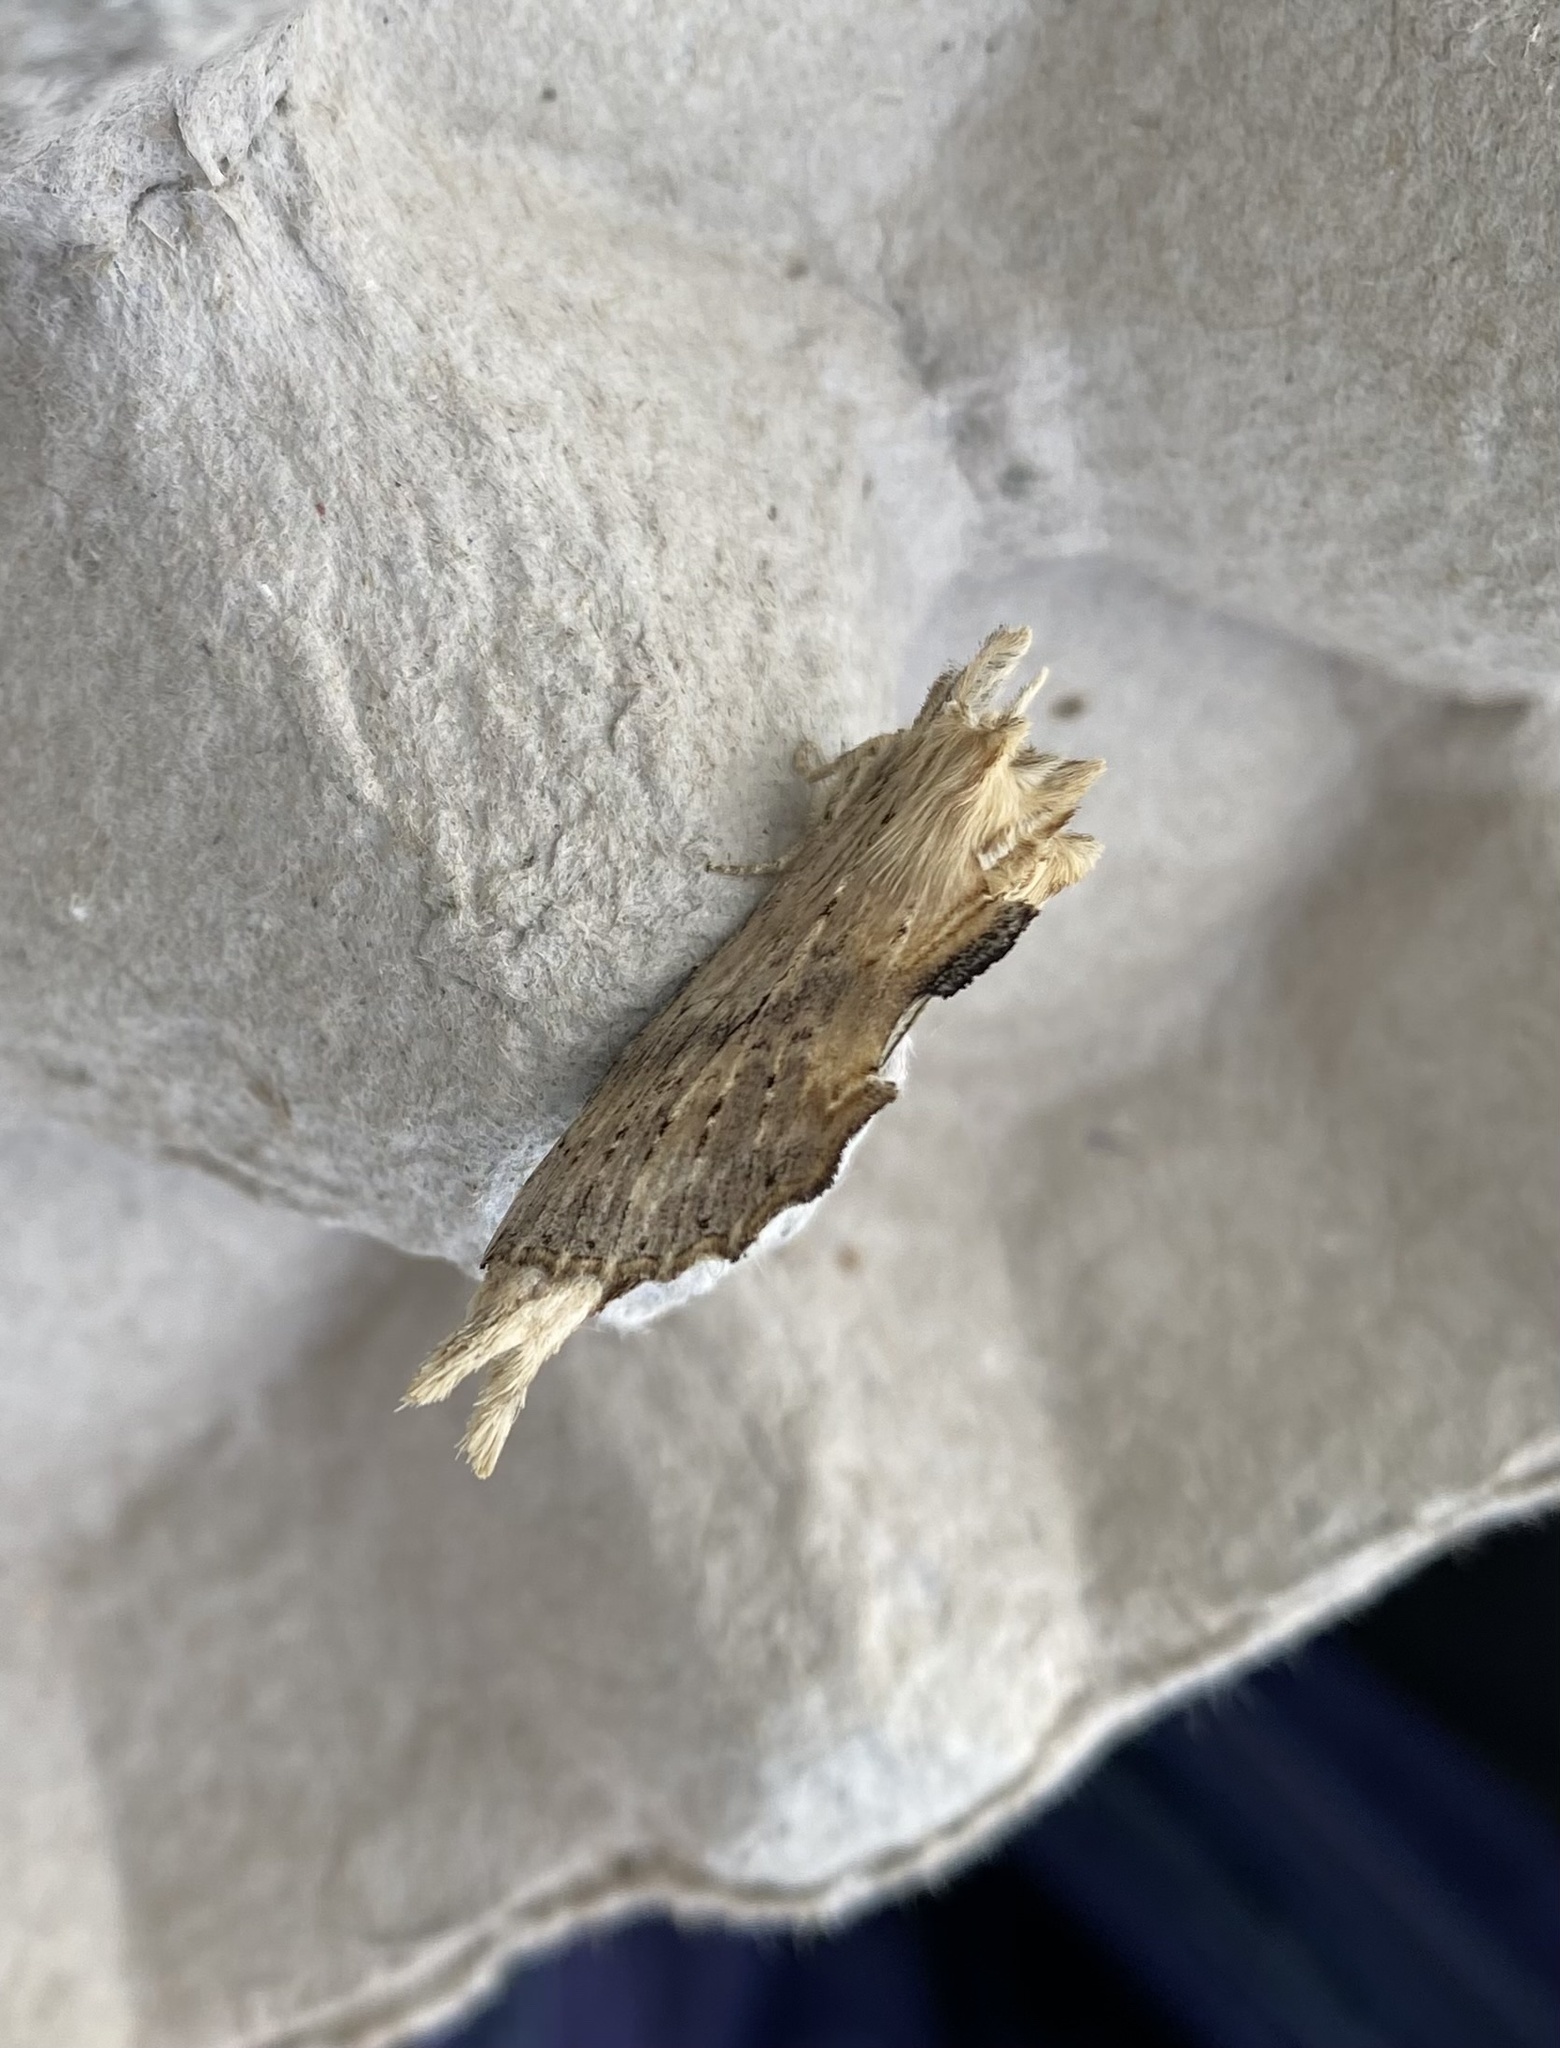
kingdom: Animalia
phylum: Arthropoda
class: Insecta
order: Lepidoptera
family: Notodontidae
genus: Pterostoma
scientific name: Pterostoma palpina
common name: Pale prominent
